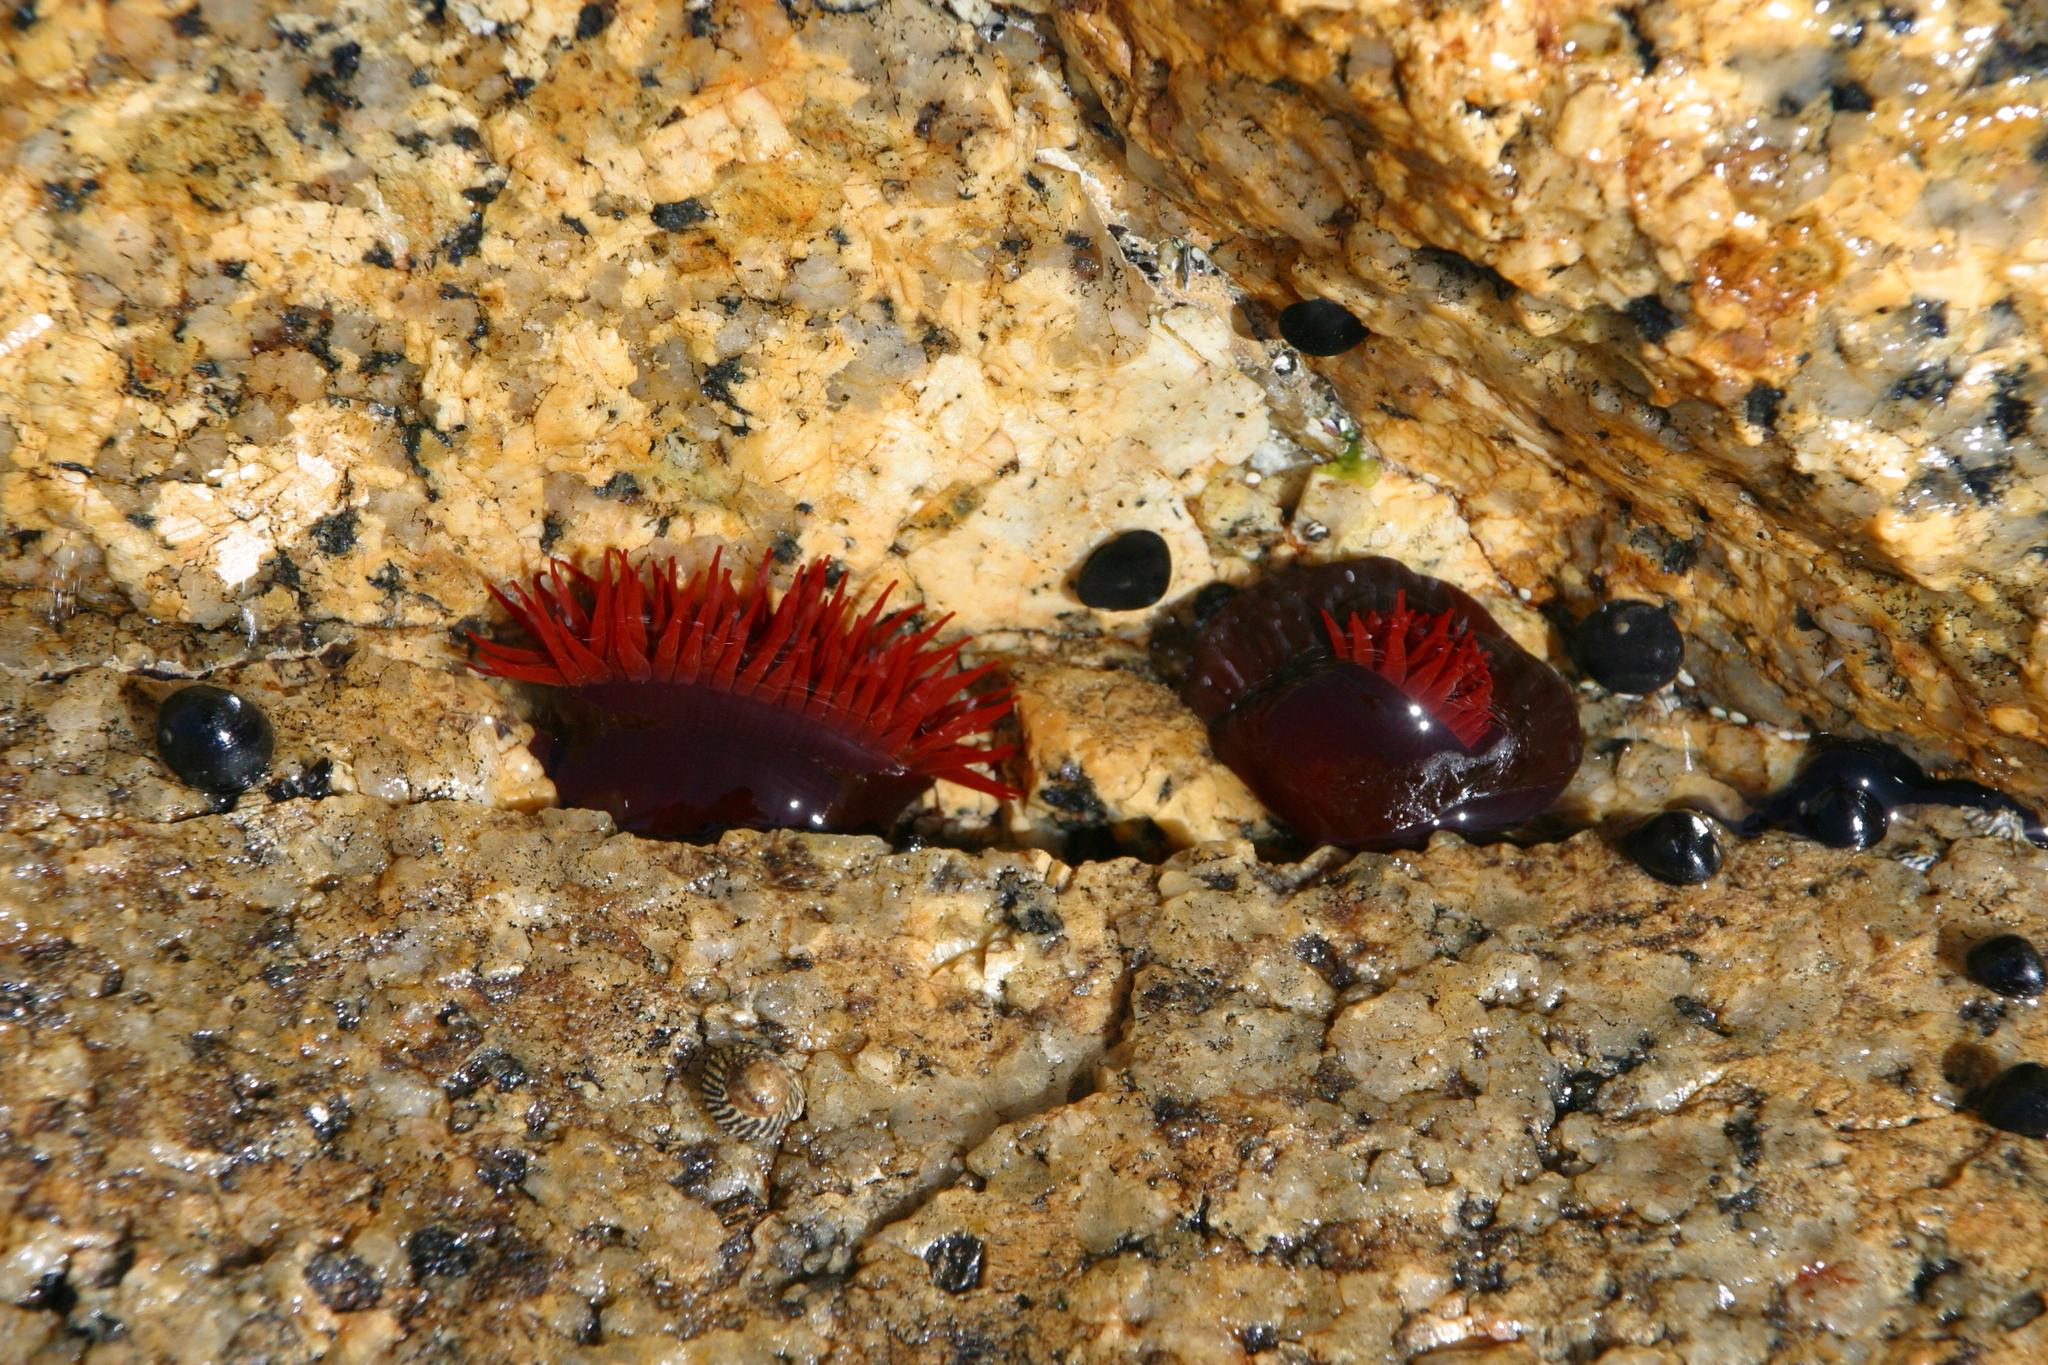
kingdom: Animalia
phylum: Cnidaria
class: Anthozoa
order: Actiniaria
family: Actiniidae
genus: Actinia
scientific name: Actinia tenebrosa
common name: Waratah anemone
